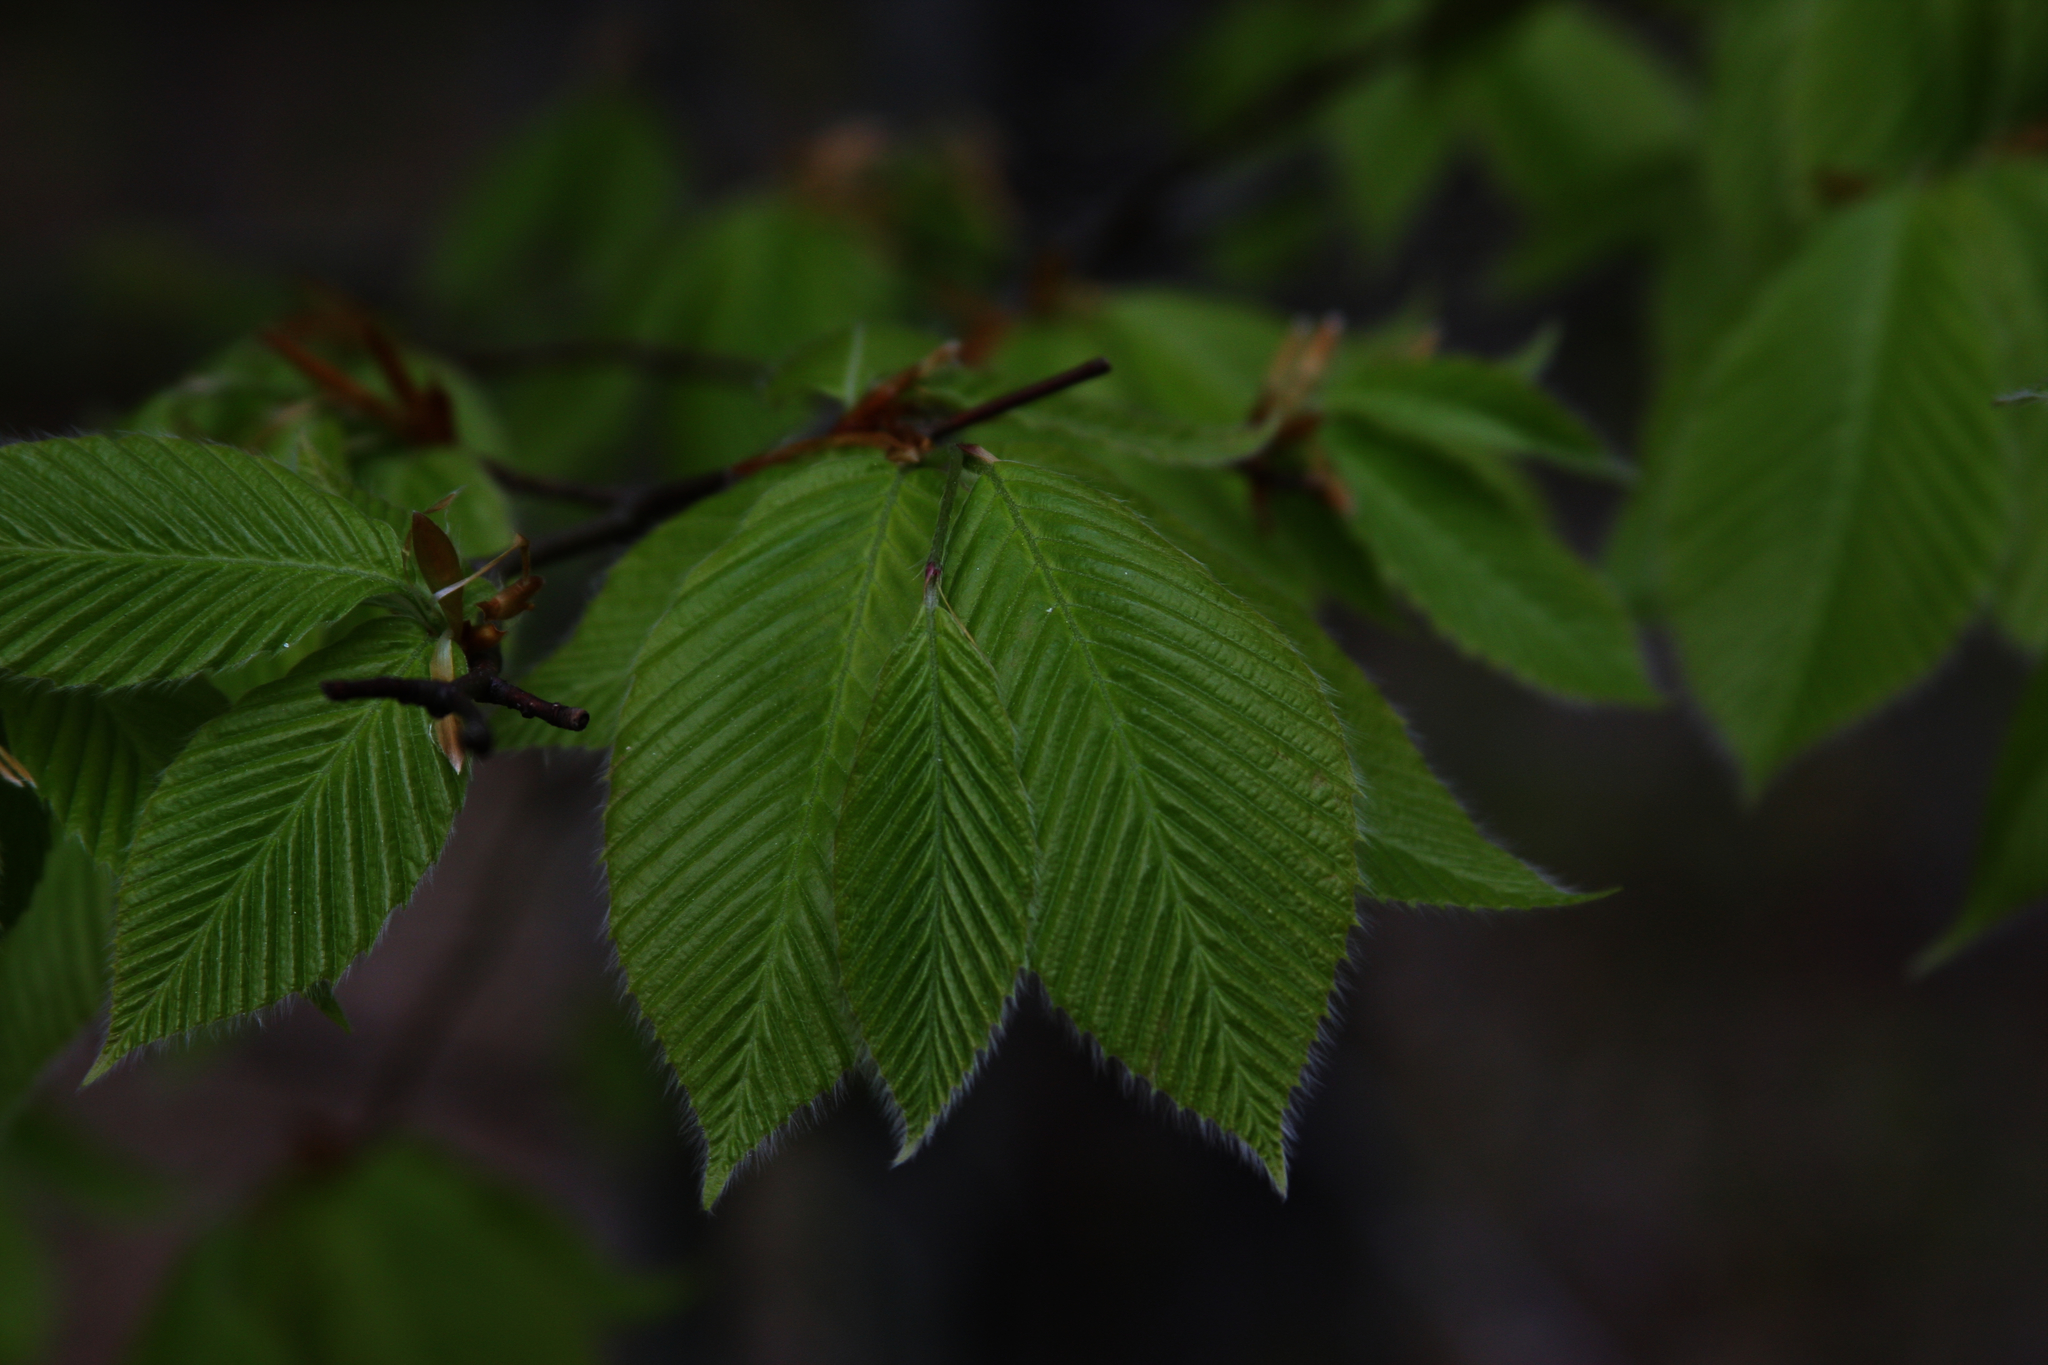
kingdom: Plantae
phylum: Tracheophyta
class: Magnoliopsida
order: Fagales
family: Fagaceae
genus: Fagus
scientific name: Fagus grandifolia
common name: American beech
